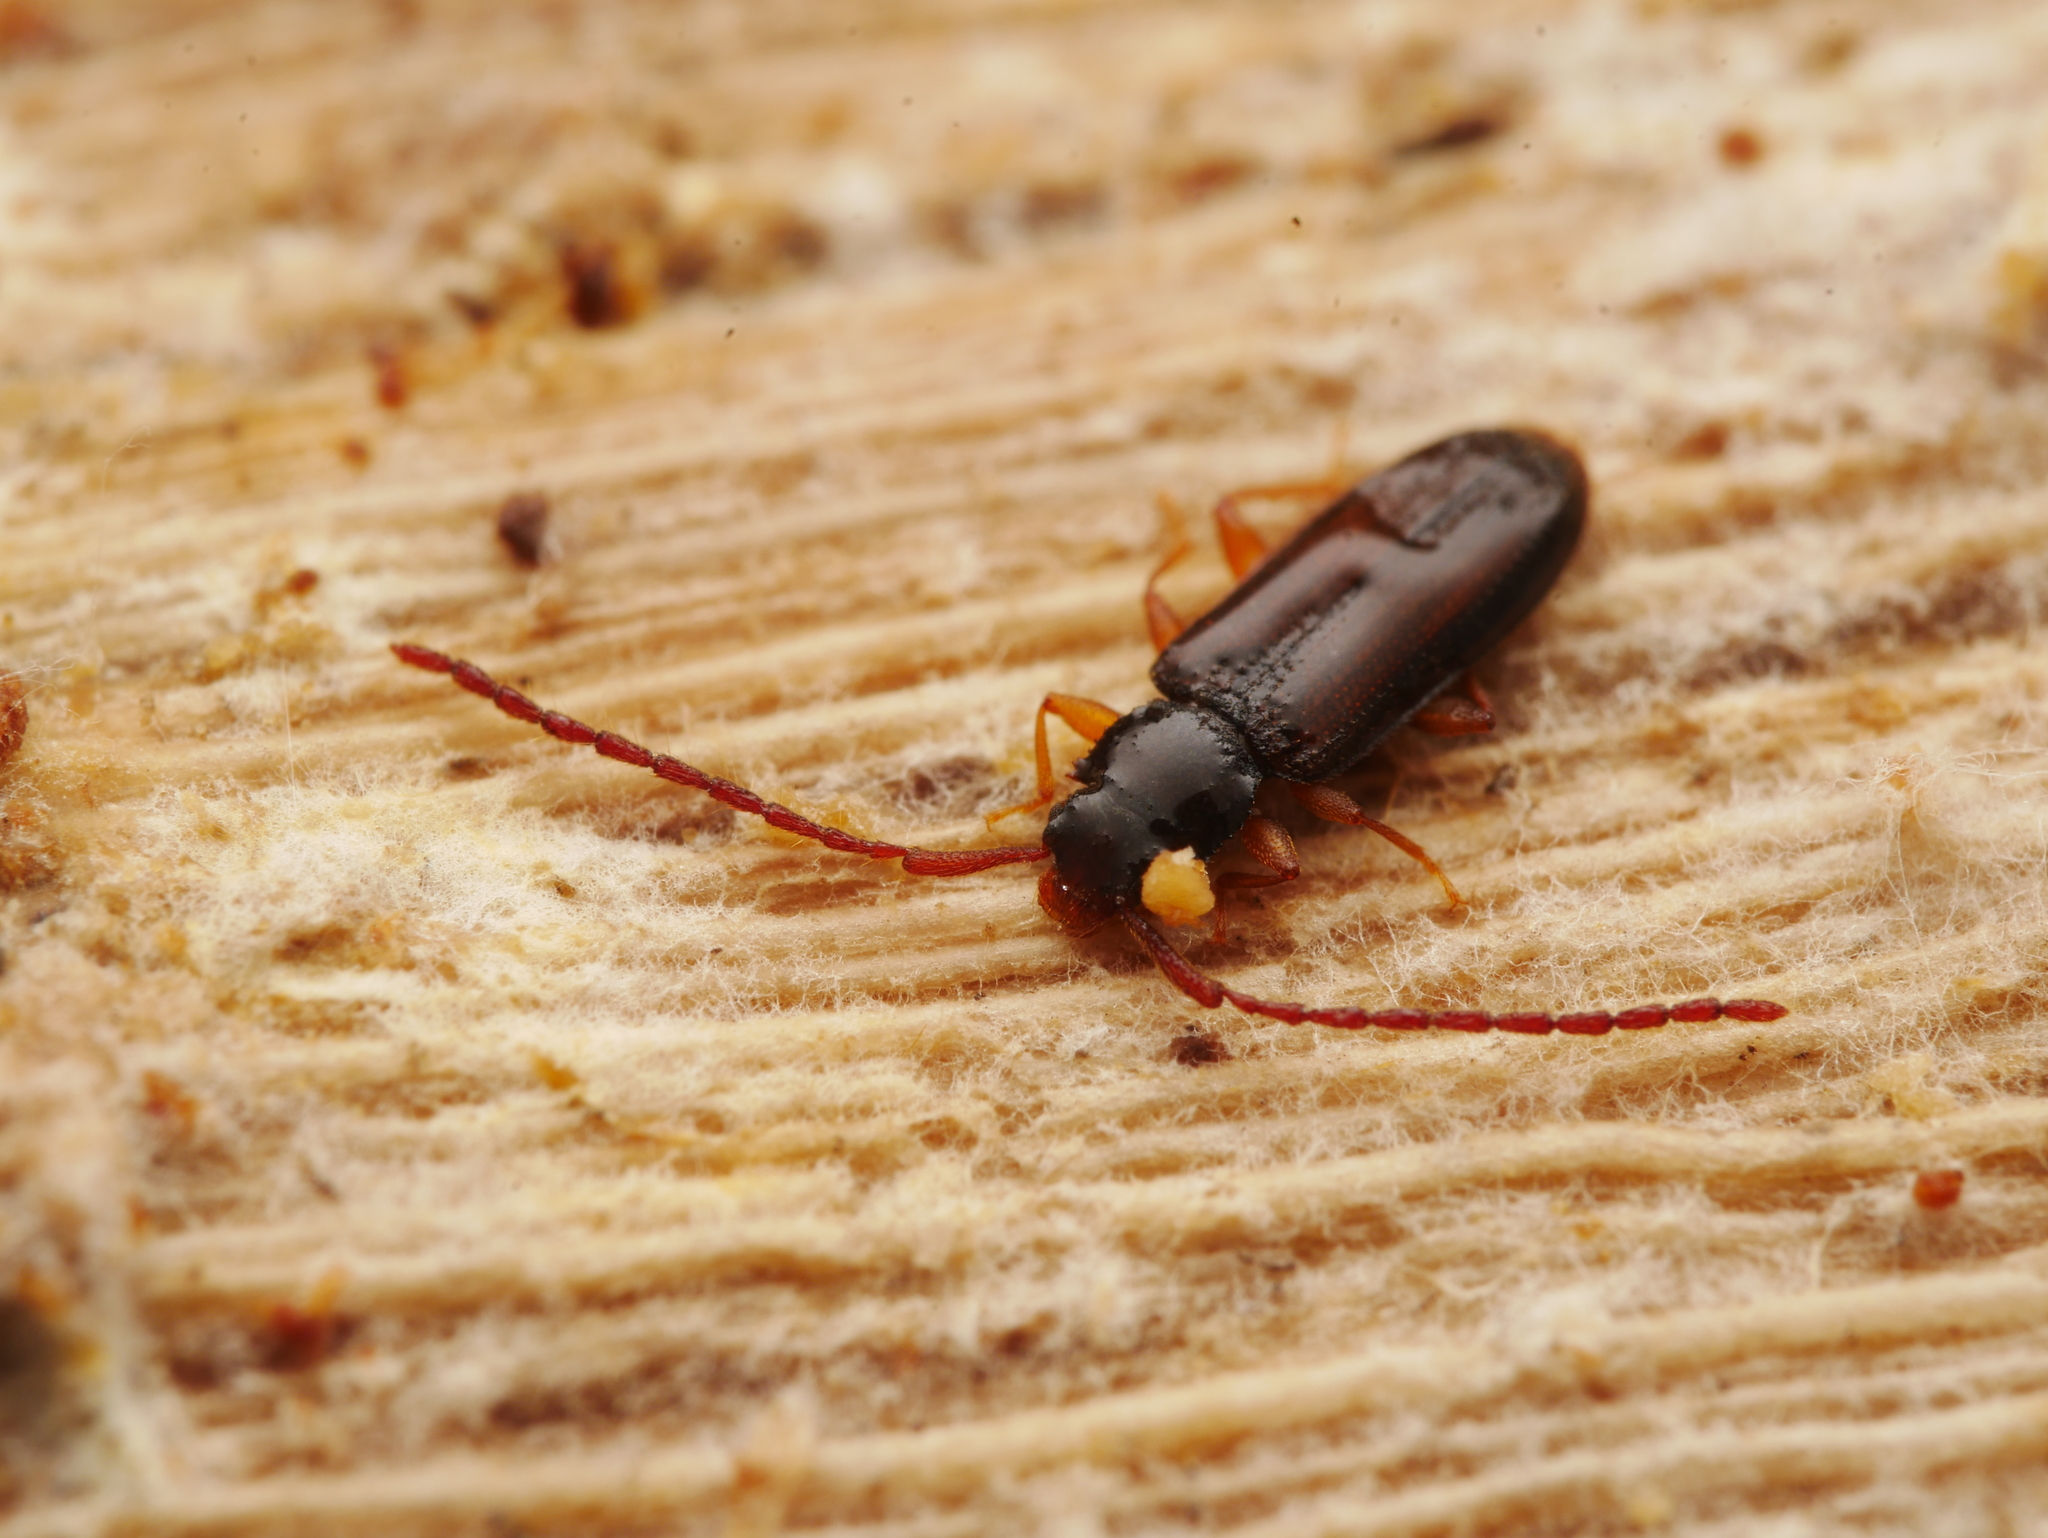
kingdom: Animalia
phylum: Arthropoda
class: Insecta
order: Coleoptera
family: Silvanidae
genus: Uleiota
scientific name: Uleiota planatus
